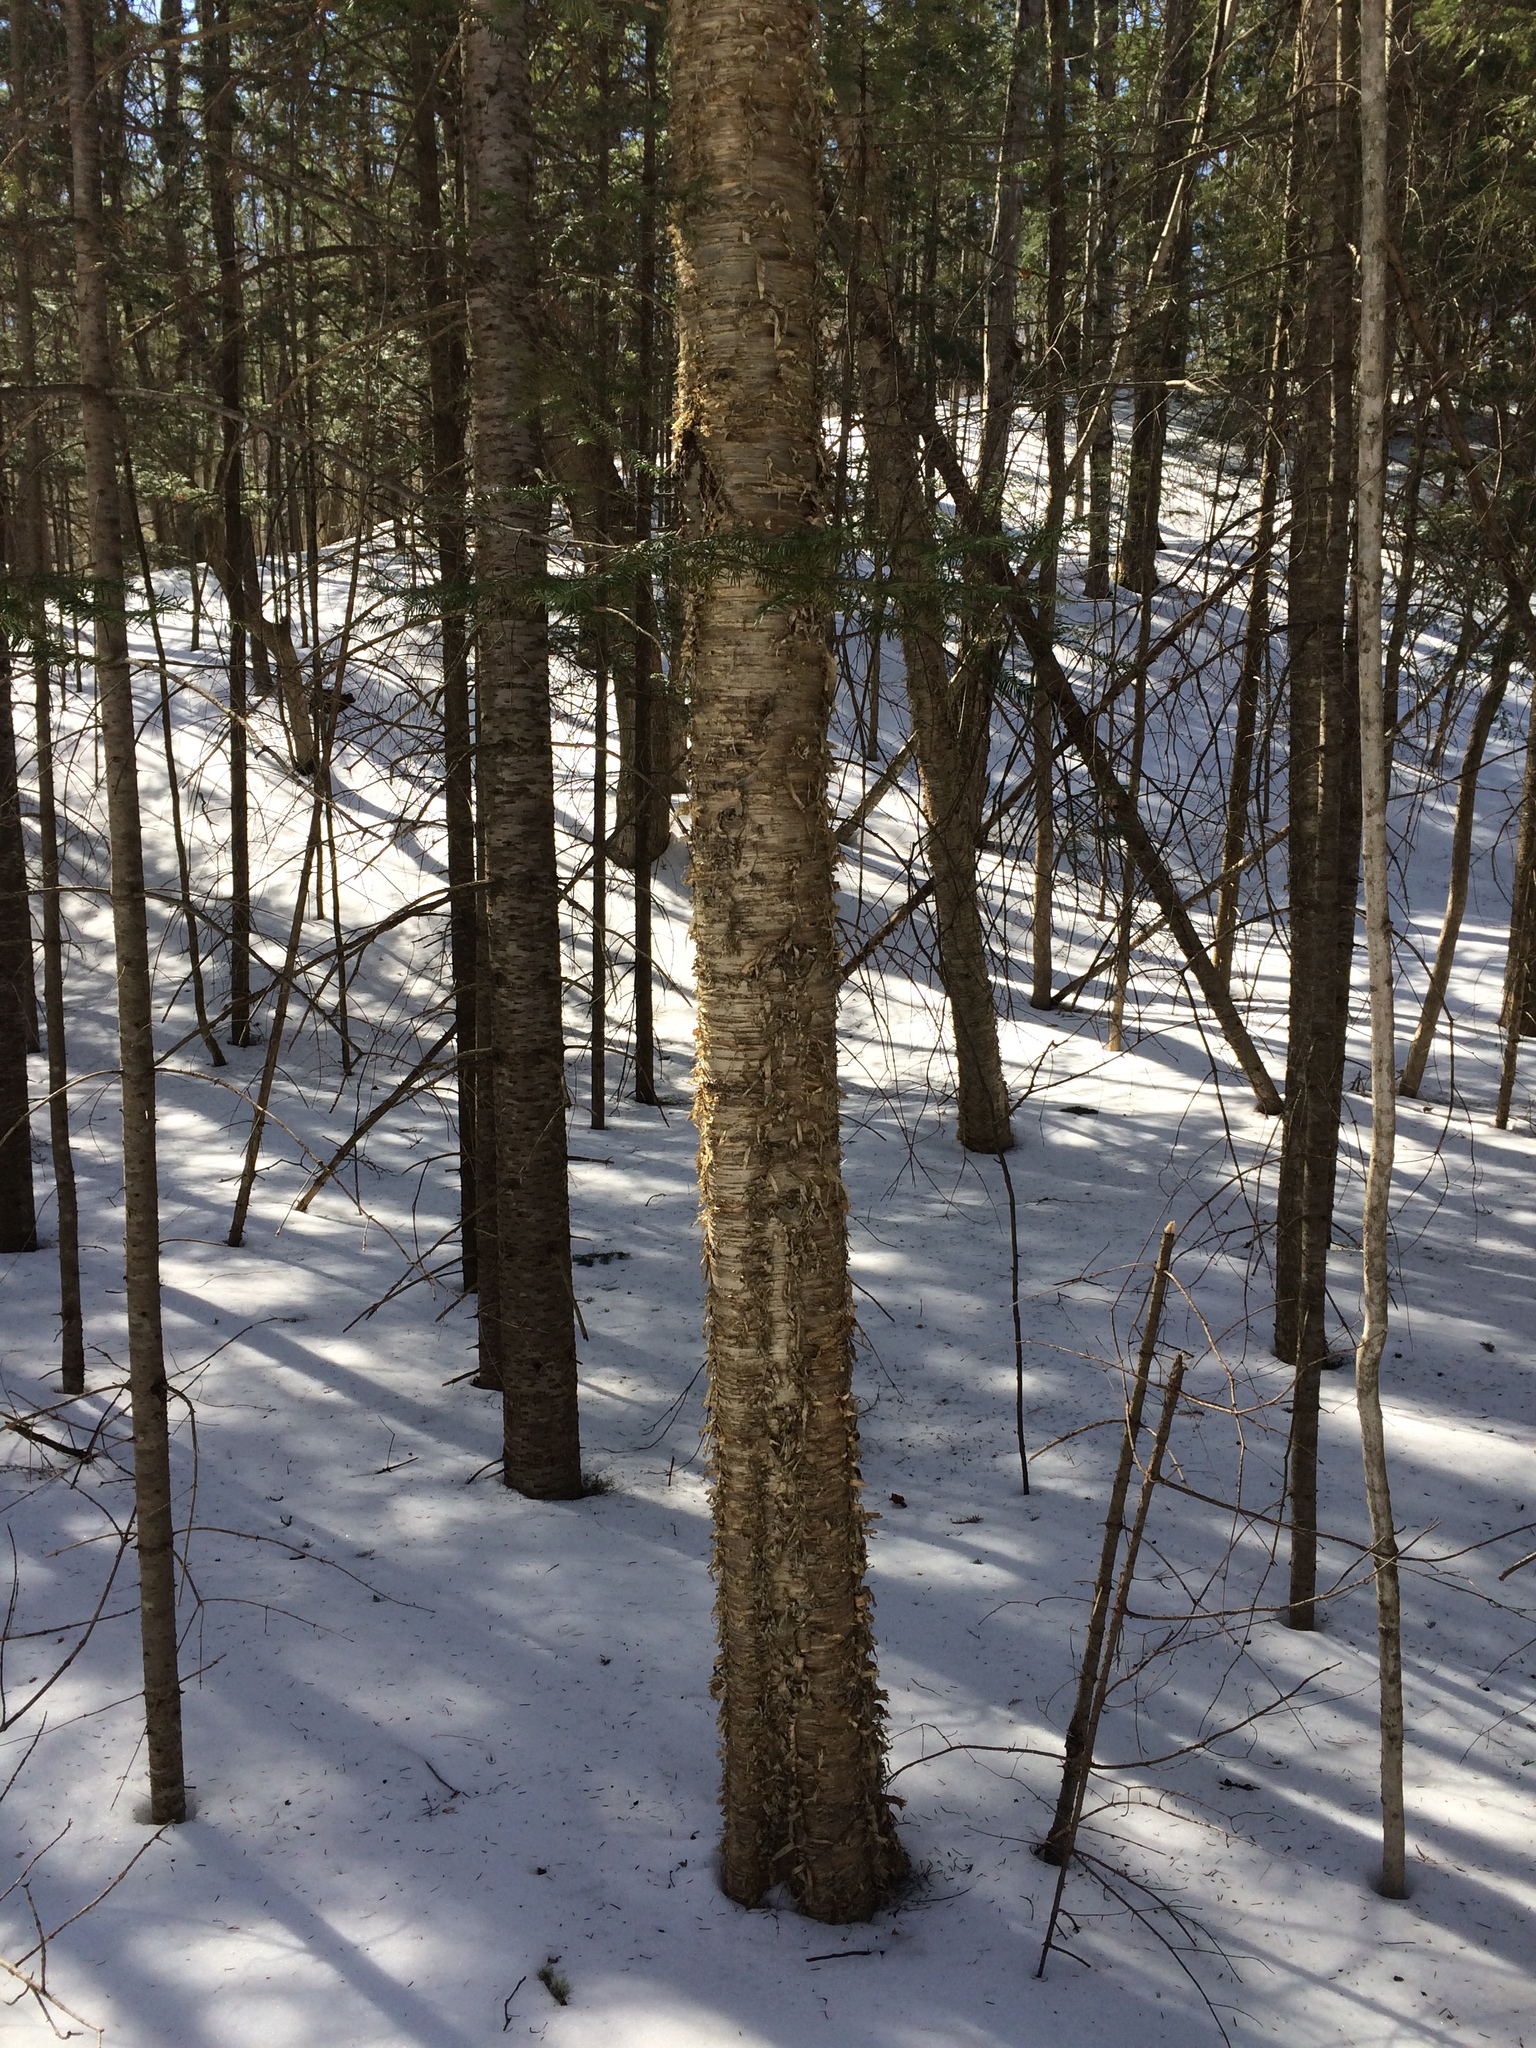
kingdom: Plantae
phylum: Tracheophyta
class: Magnoliopsida
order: Fagales
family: Betulaceae
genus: Betula
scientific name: Betula alleghaniensis
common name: Yellow birch
